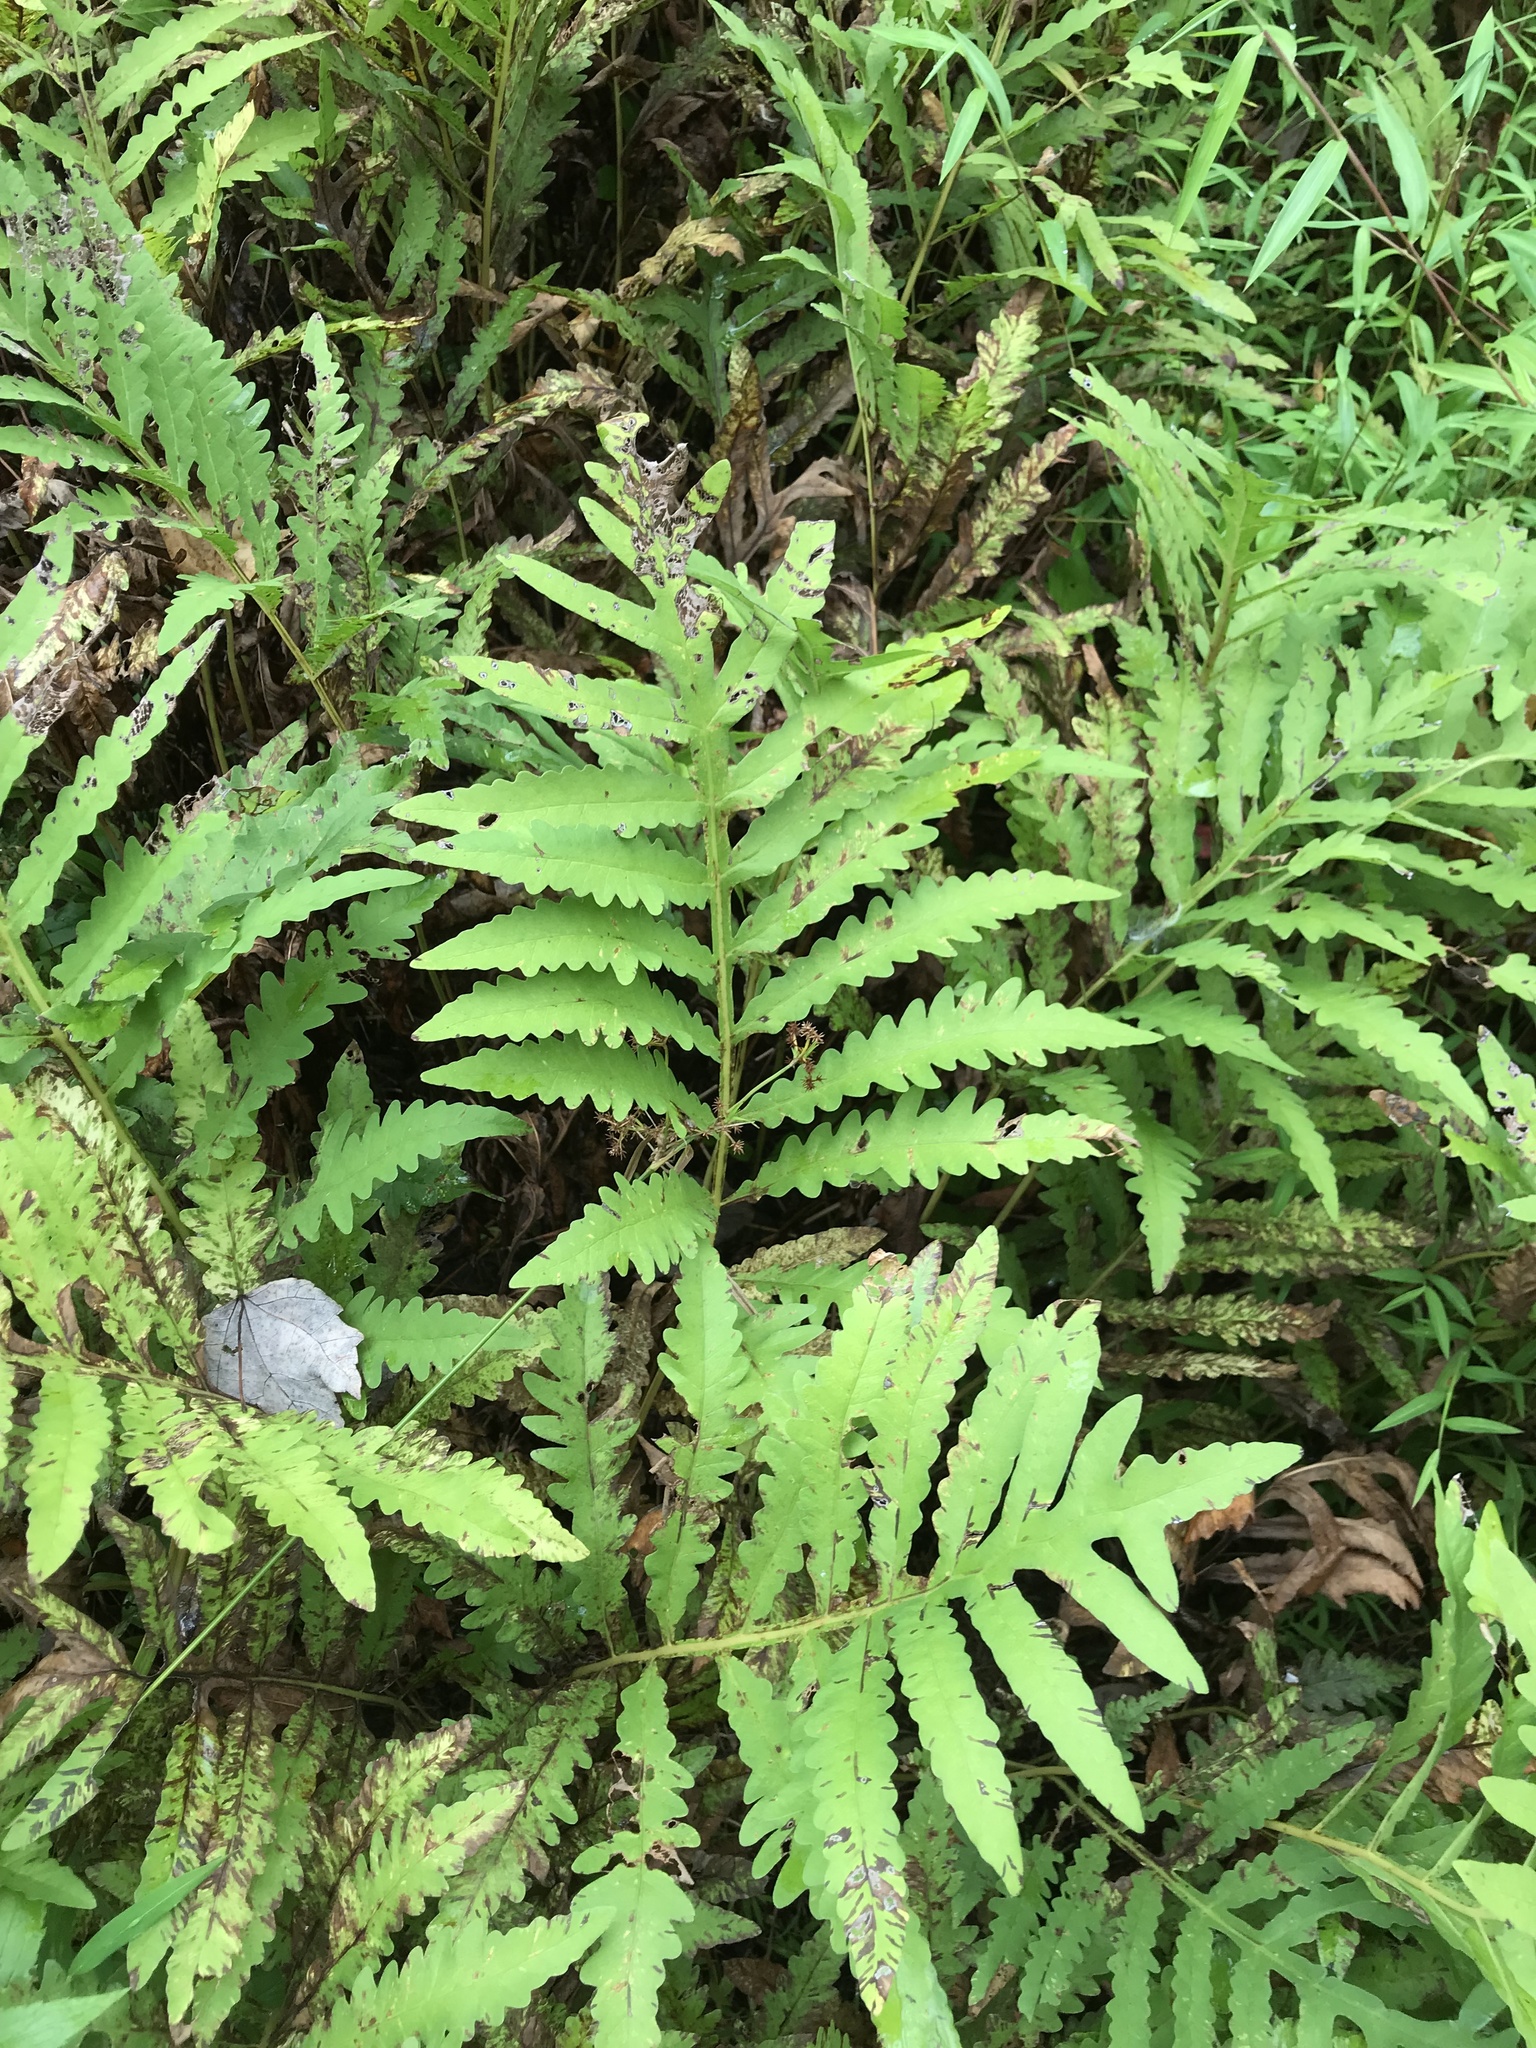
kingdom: Plantae
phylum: Tracheophyta
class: Polypodiopsida
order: Polypodiales
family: Onocleaceae
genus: Onoclea
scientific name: Onoclea sensibilis
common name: Sensitive fern
